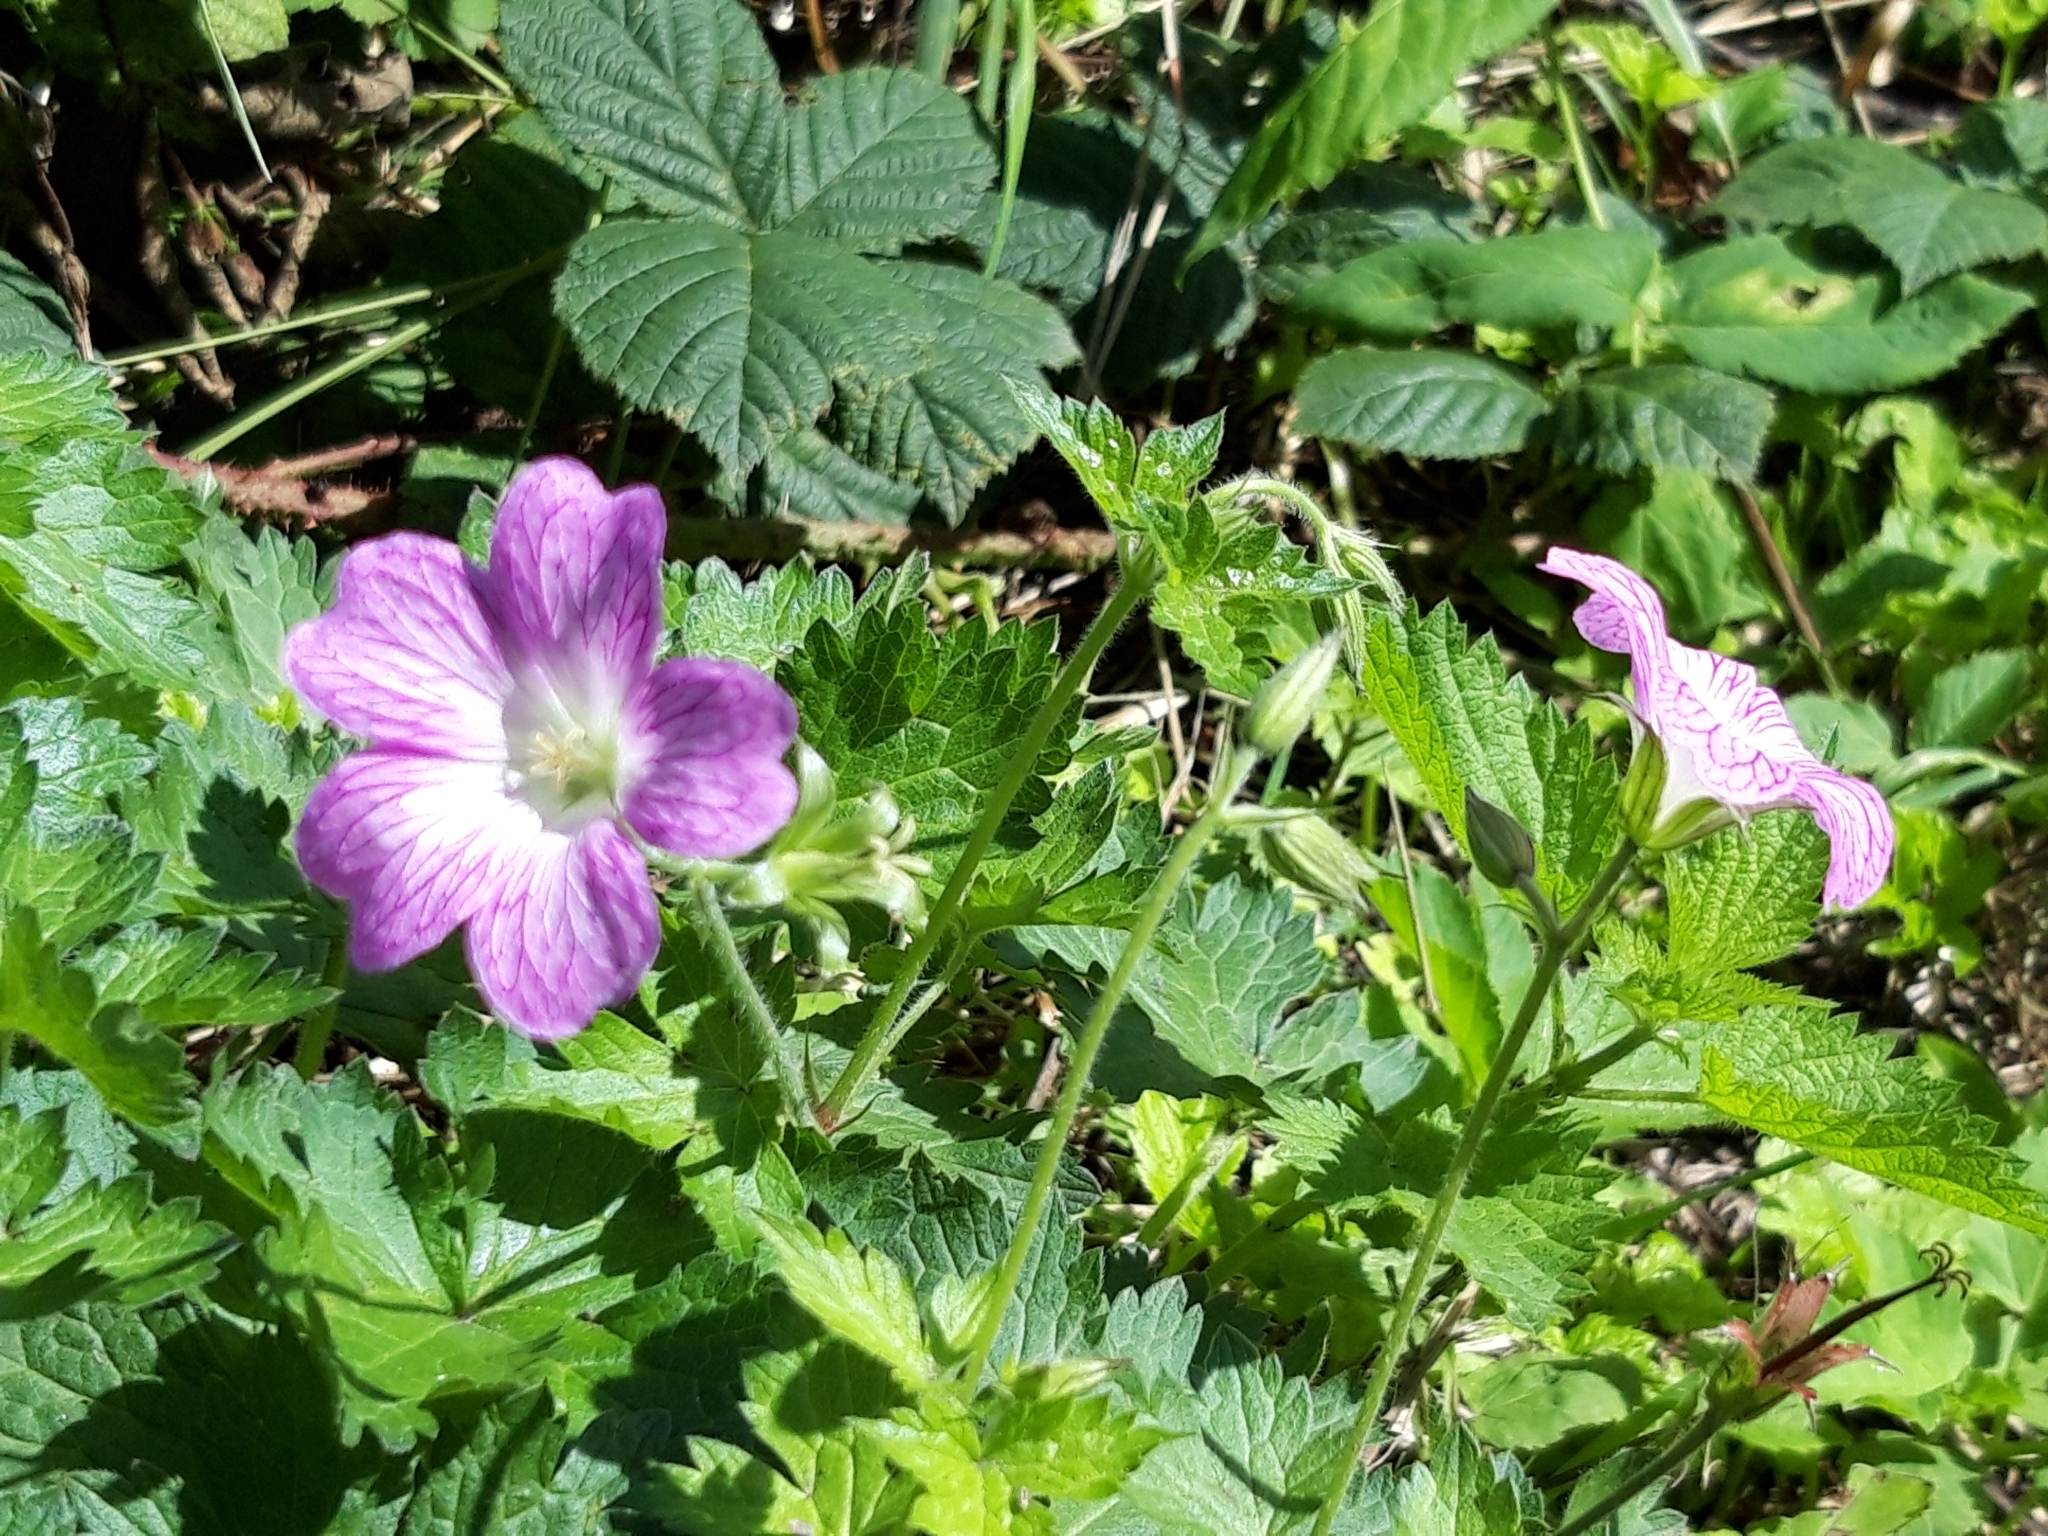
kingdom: Plantae
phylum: Tracheophyta
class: Magnoliopsida
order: Geraniales
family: Geraniaceae
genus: Geranium
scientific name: Geranium oxonianum
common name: Druce's crane's-bill
